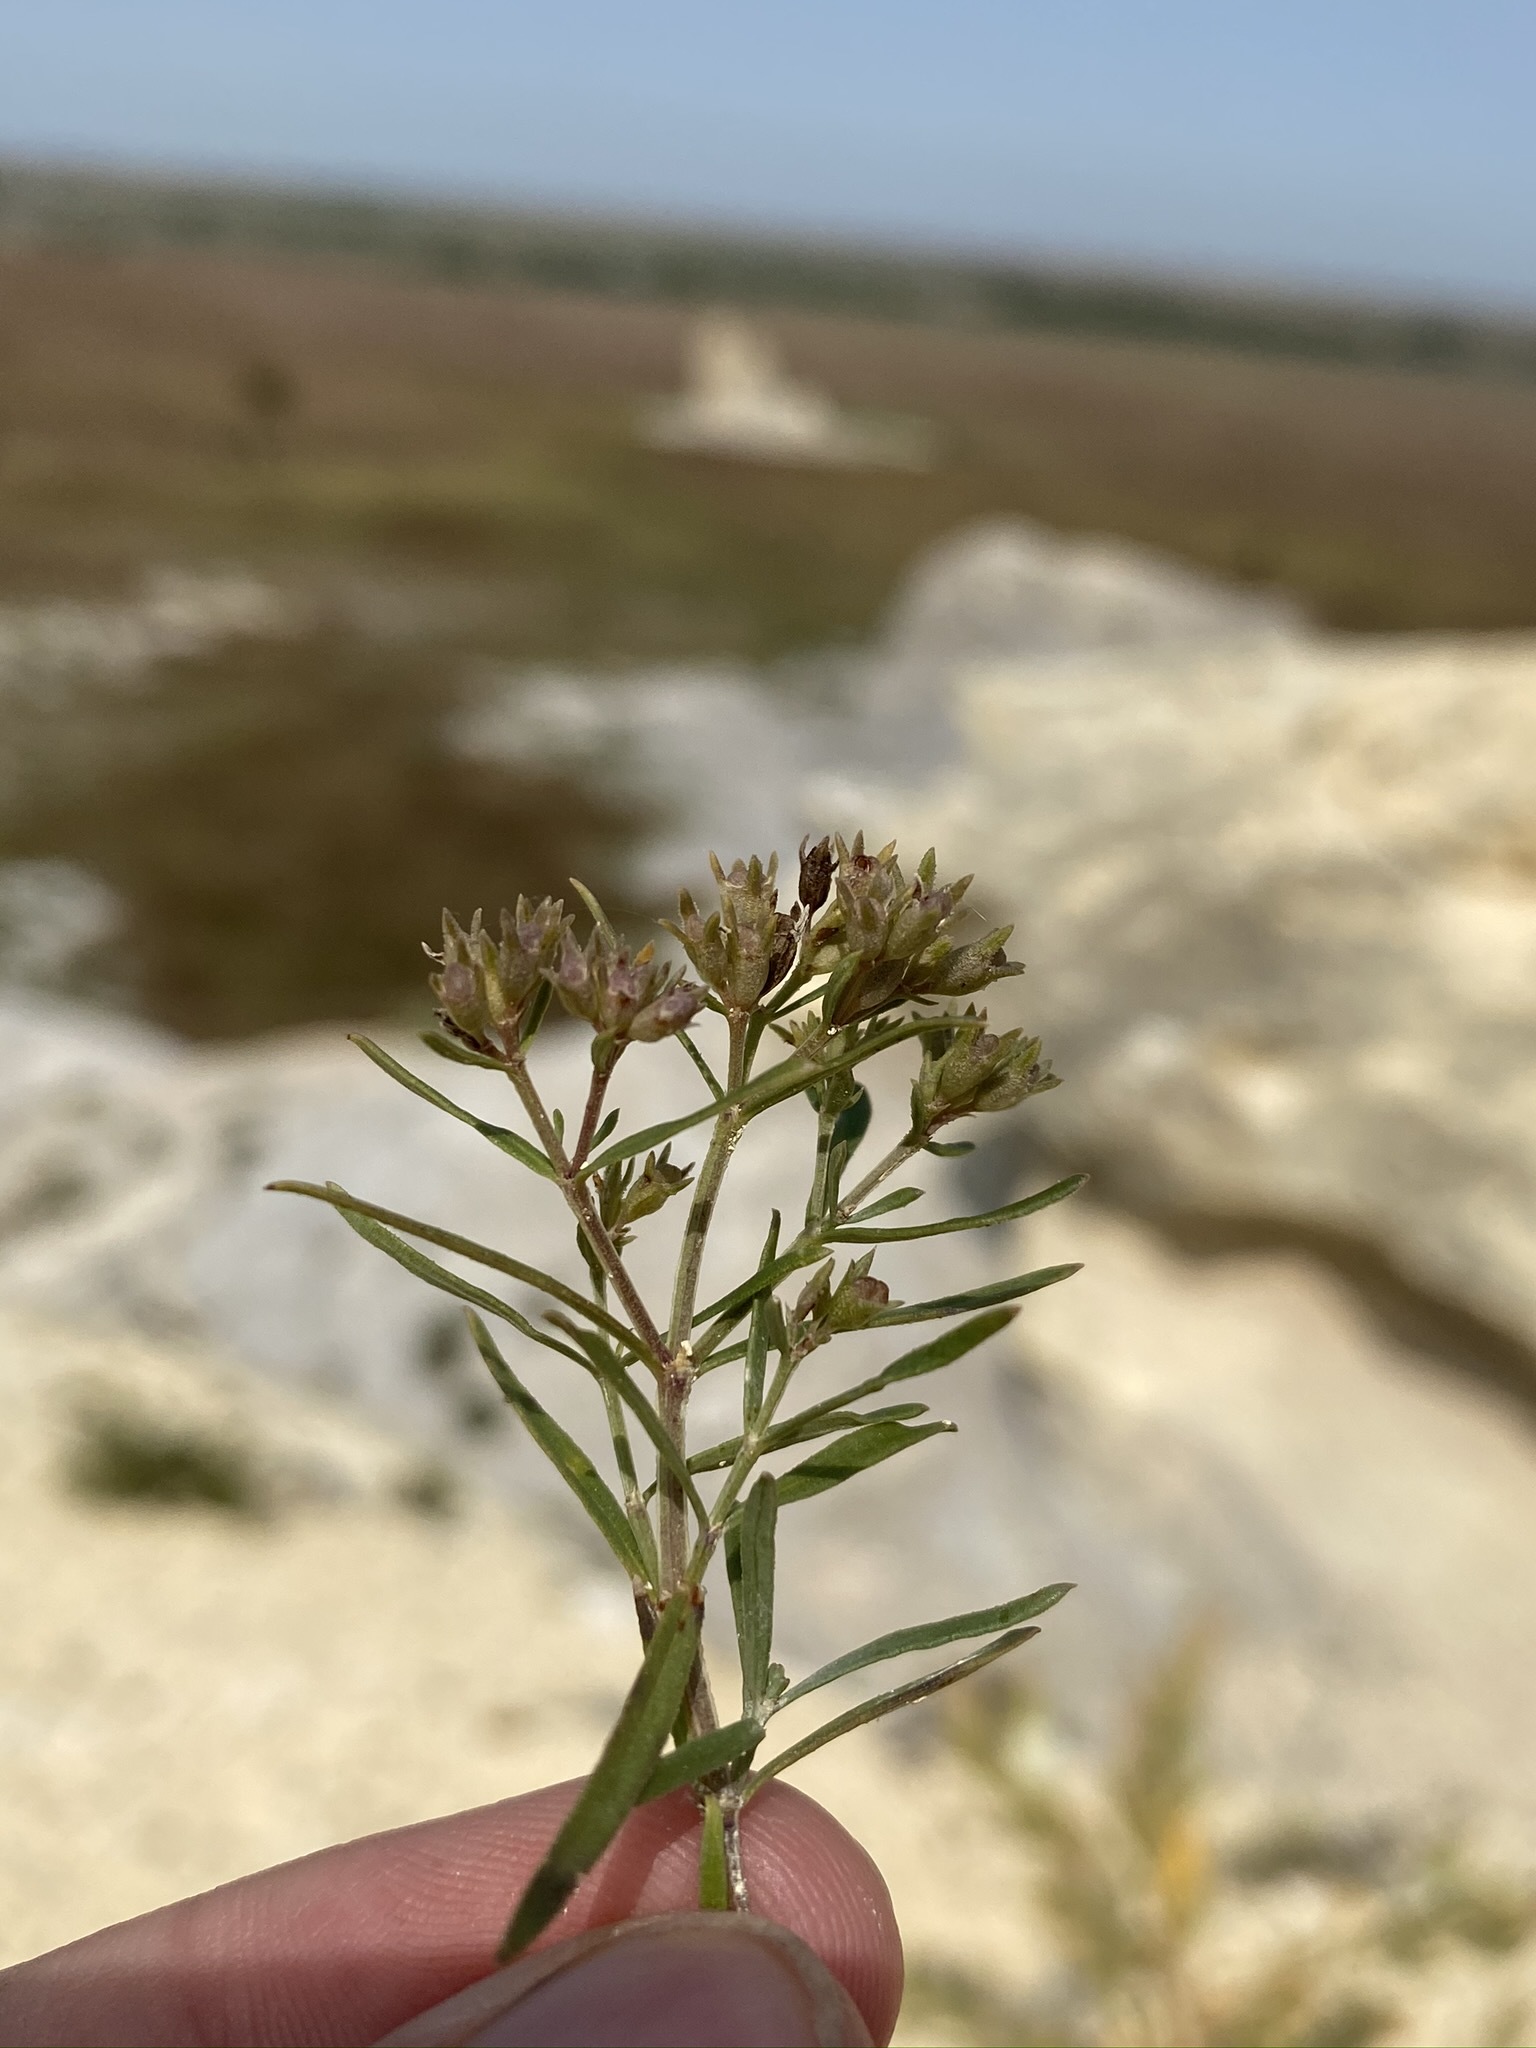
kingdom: Plantae
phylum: Tracheophyta
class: Magnoliopsida
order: Gentianales
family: Rubiaceae
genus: Stenaria
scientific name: Stenaria nigricans
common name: Diamondflowers
